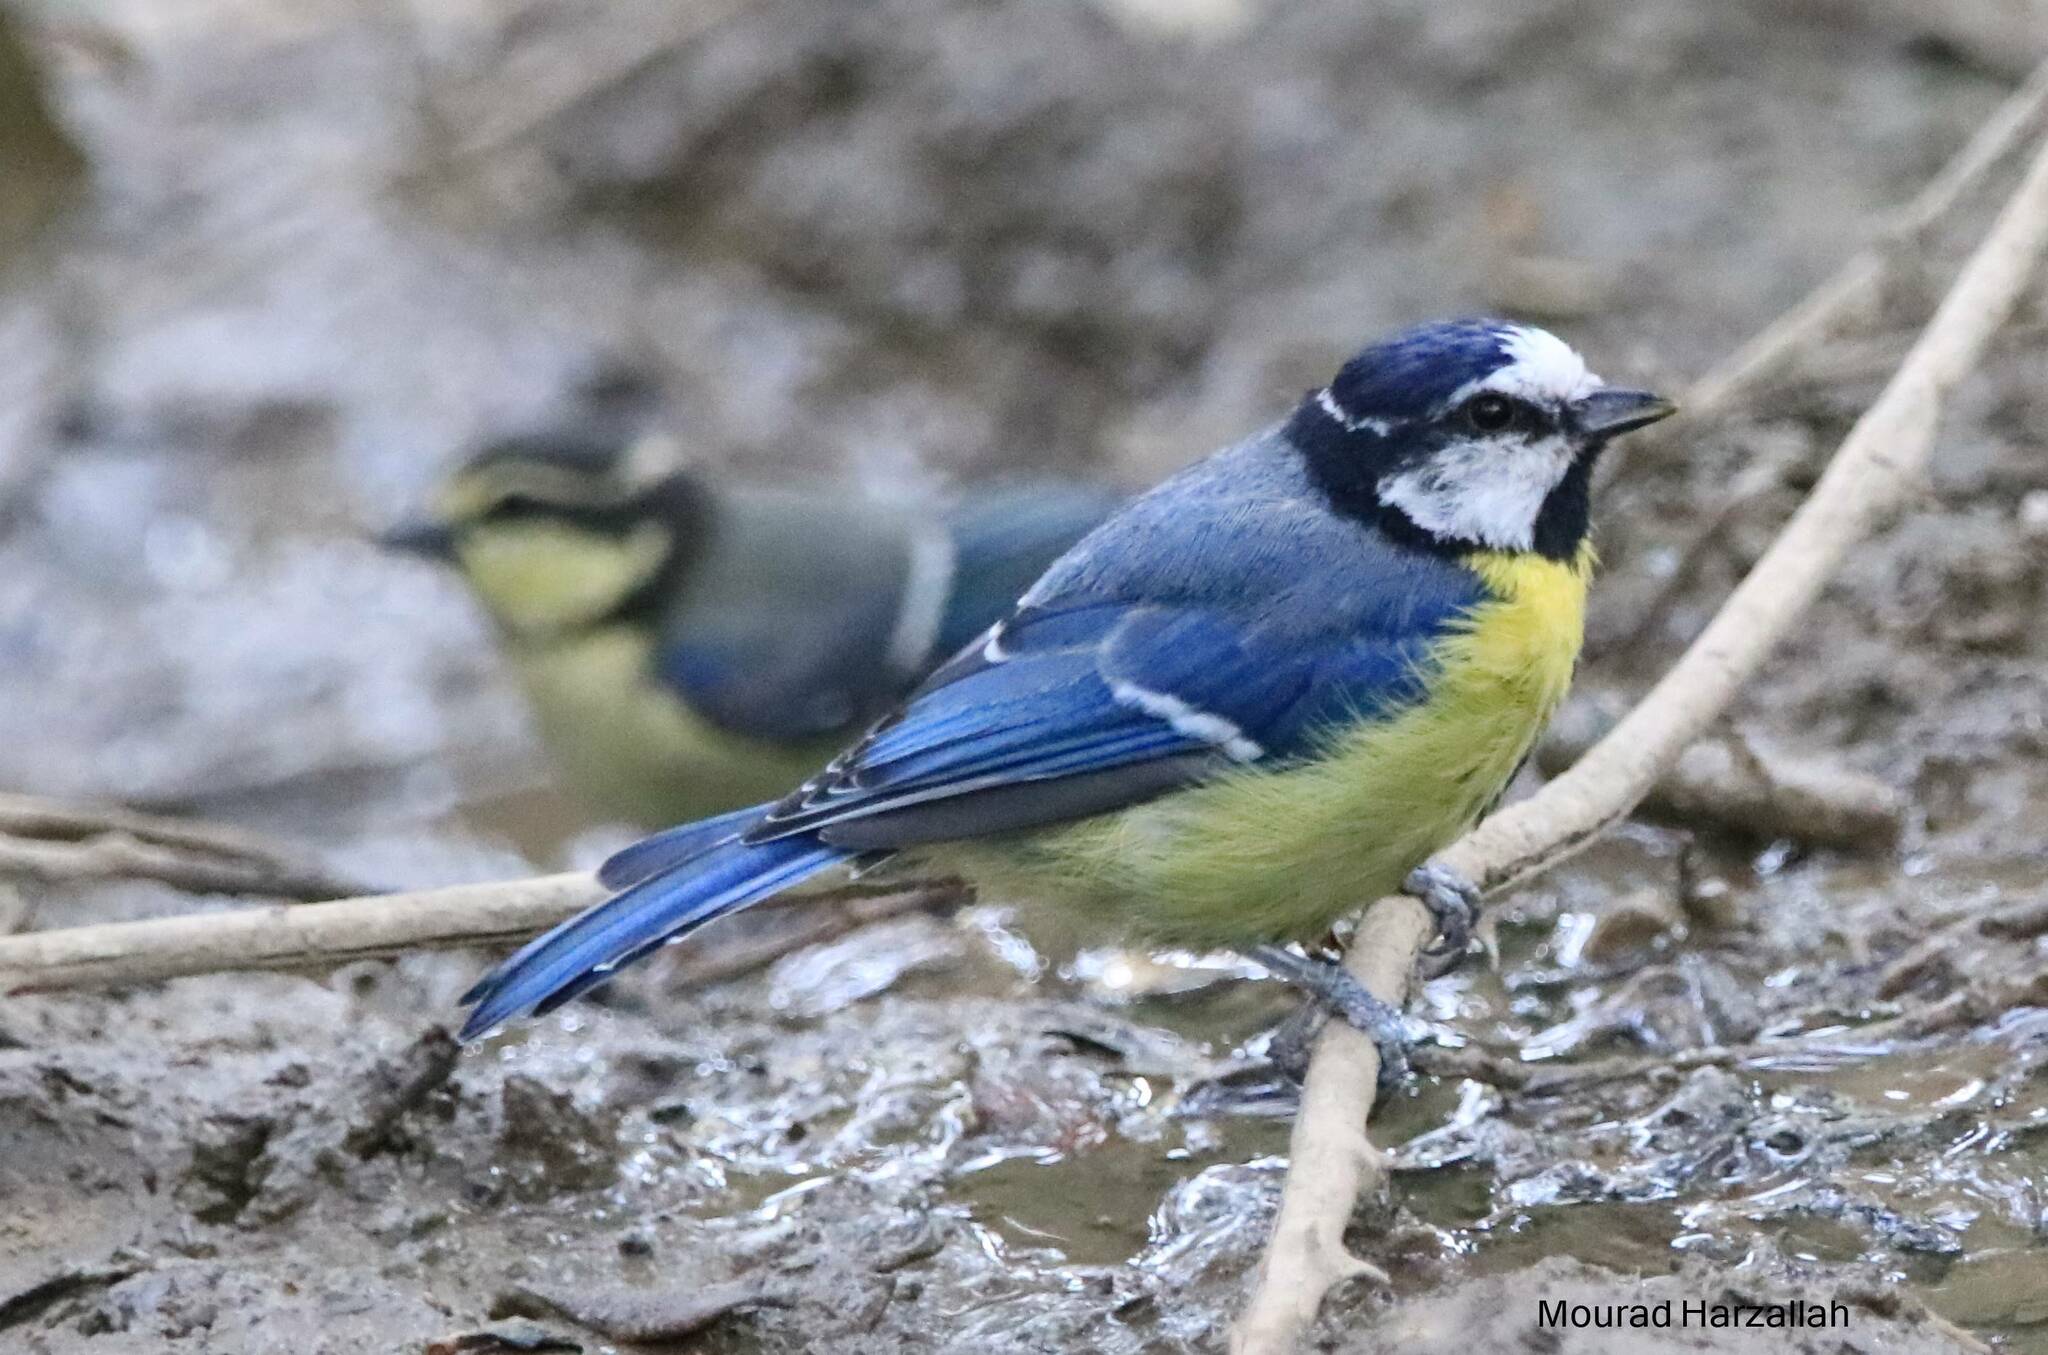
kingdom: Animalia
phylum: Chordata
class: Aves
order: Passeriformes
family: Paridae
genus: Cyanistes
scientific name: Cyanistes teneriffae
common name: African blue tit
